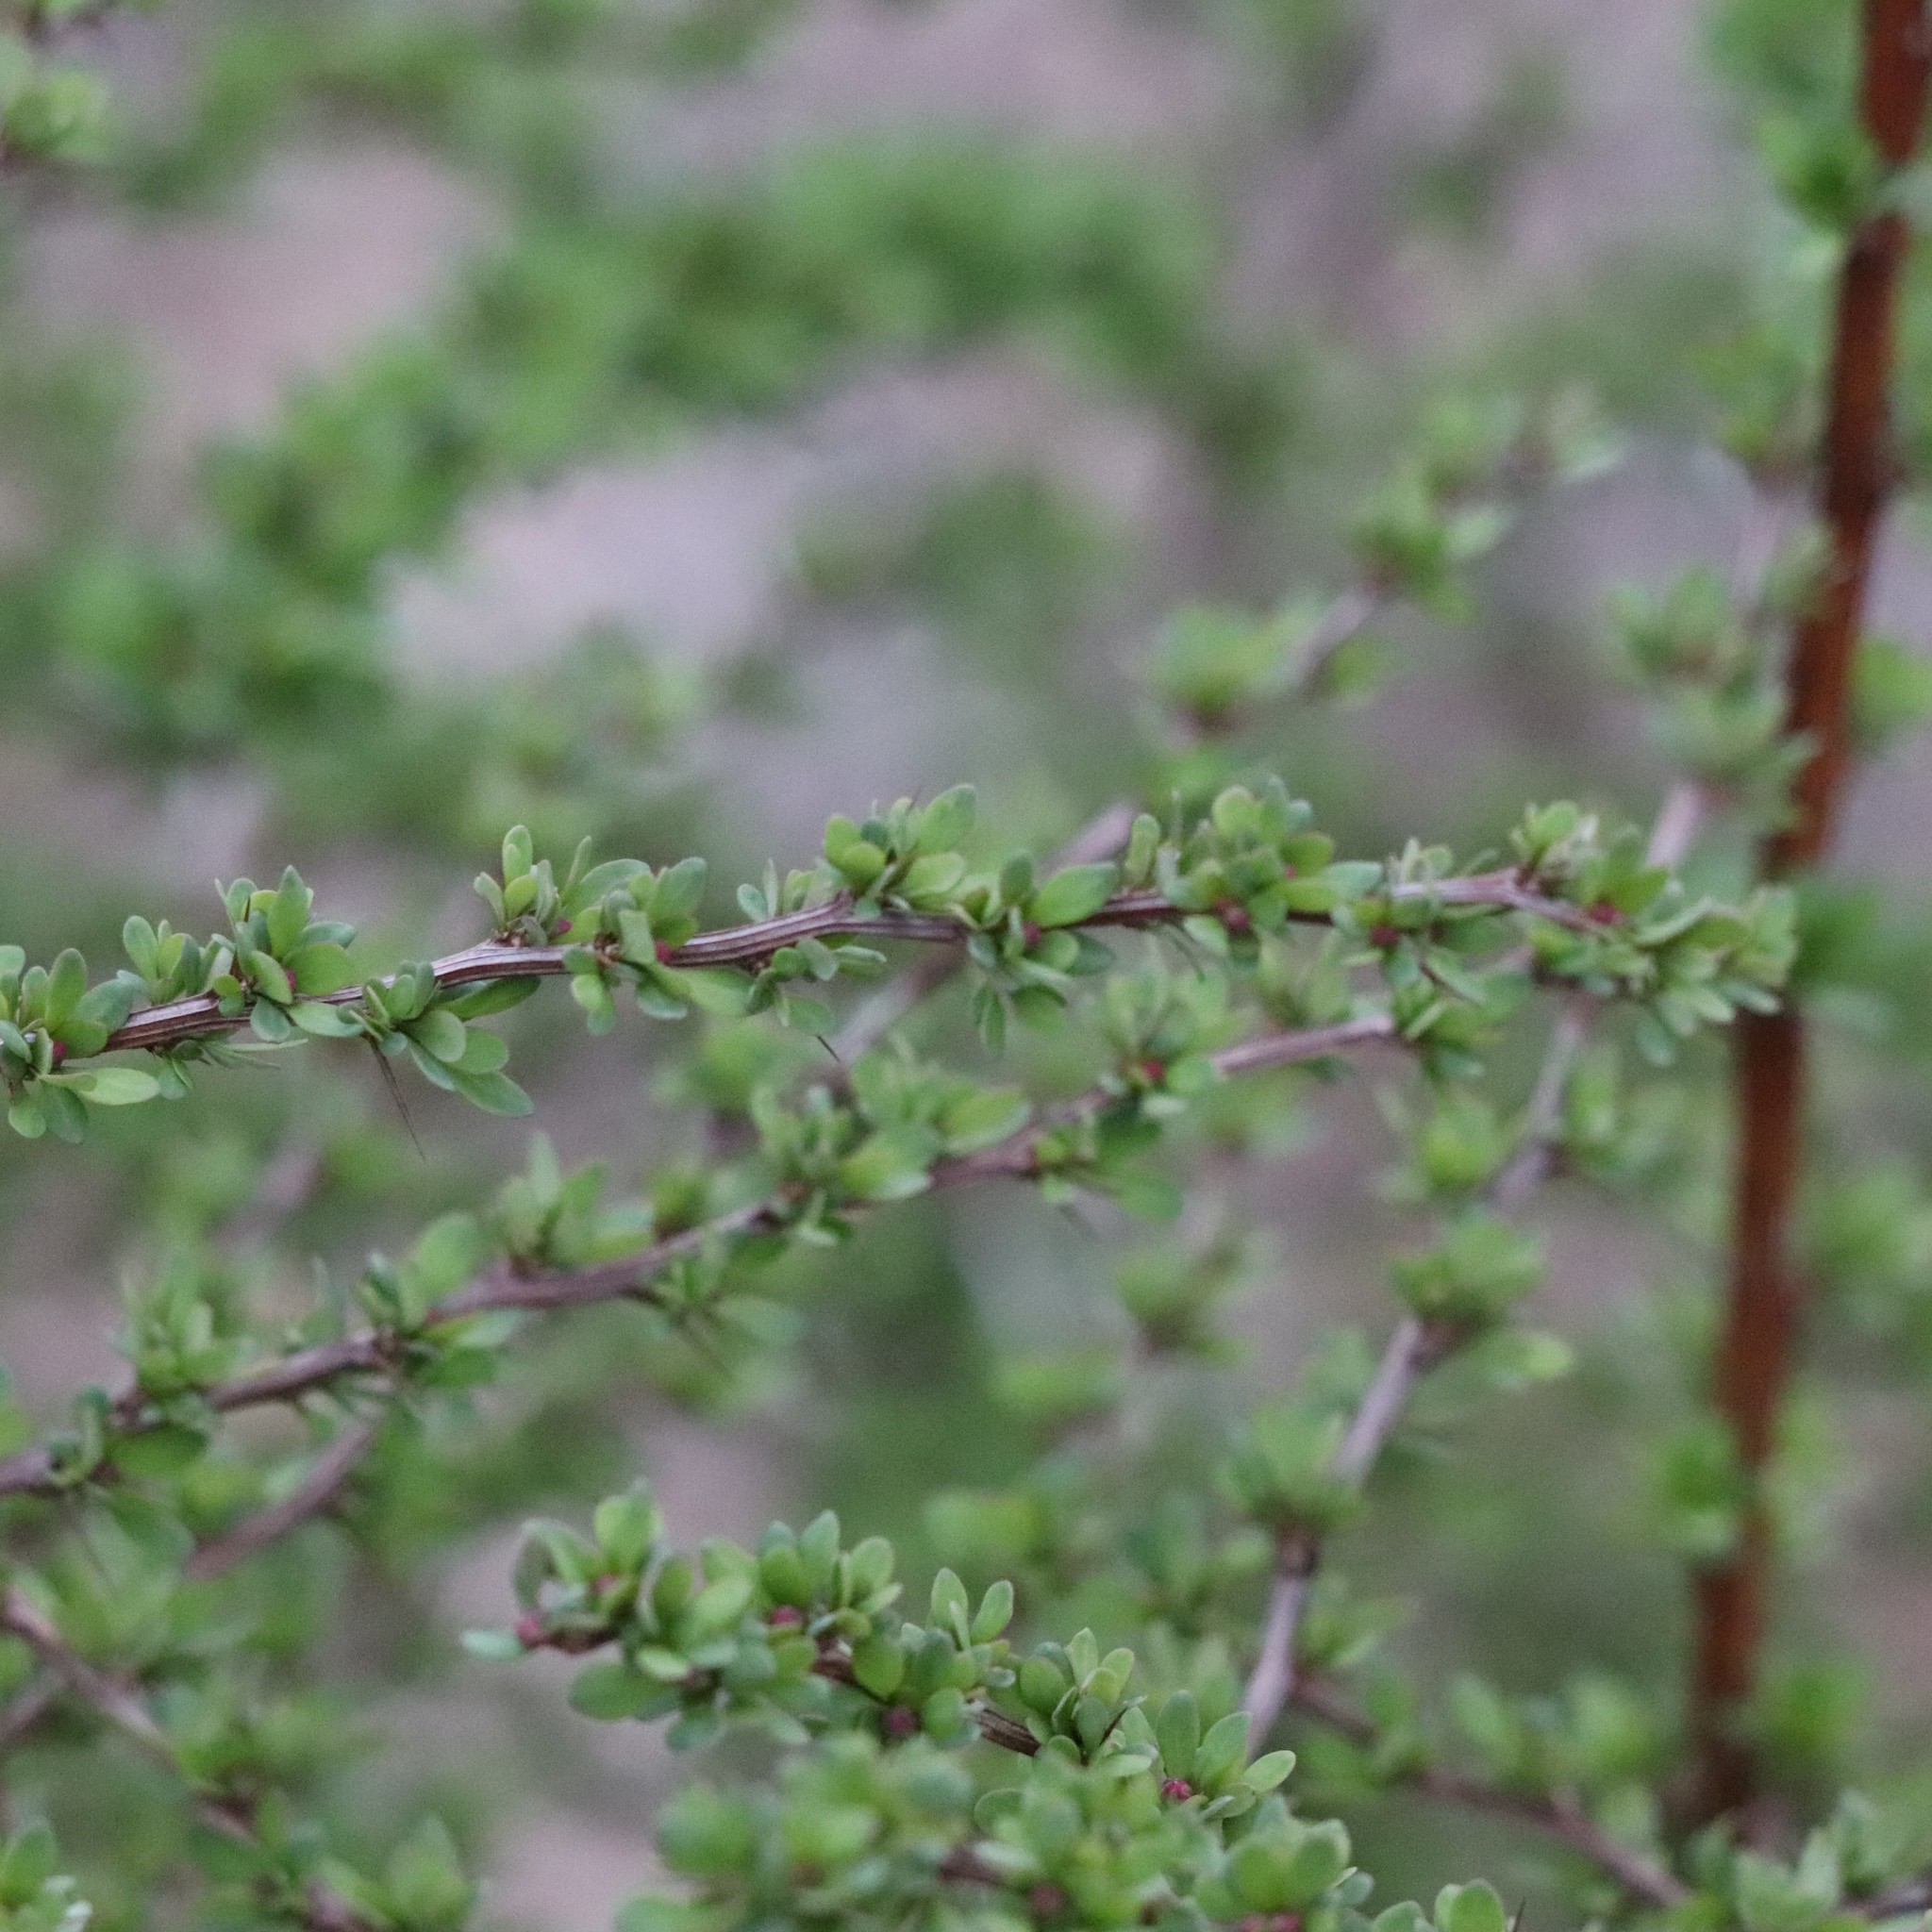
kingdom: Plantae
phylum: Tracheophyta
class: Magnoliopsida
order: Ranunculales
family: Berberidaceae
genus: Berberis
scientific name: Berberis thunbergii
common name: Japanese barberry
